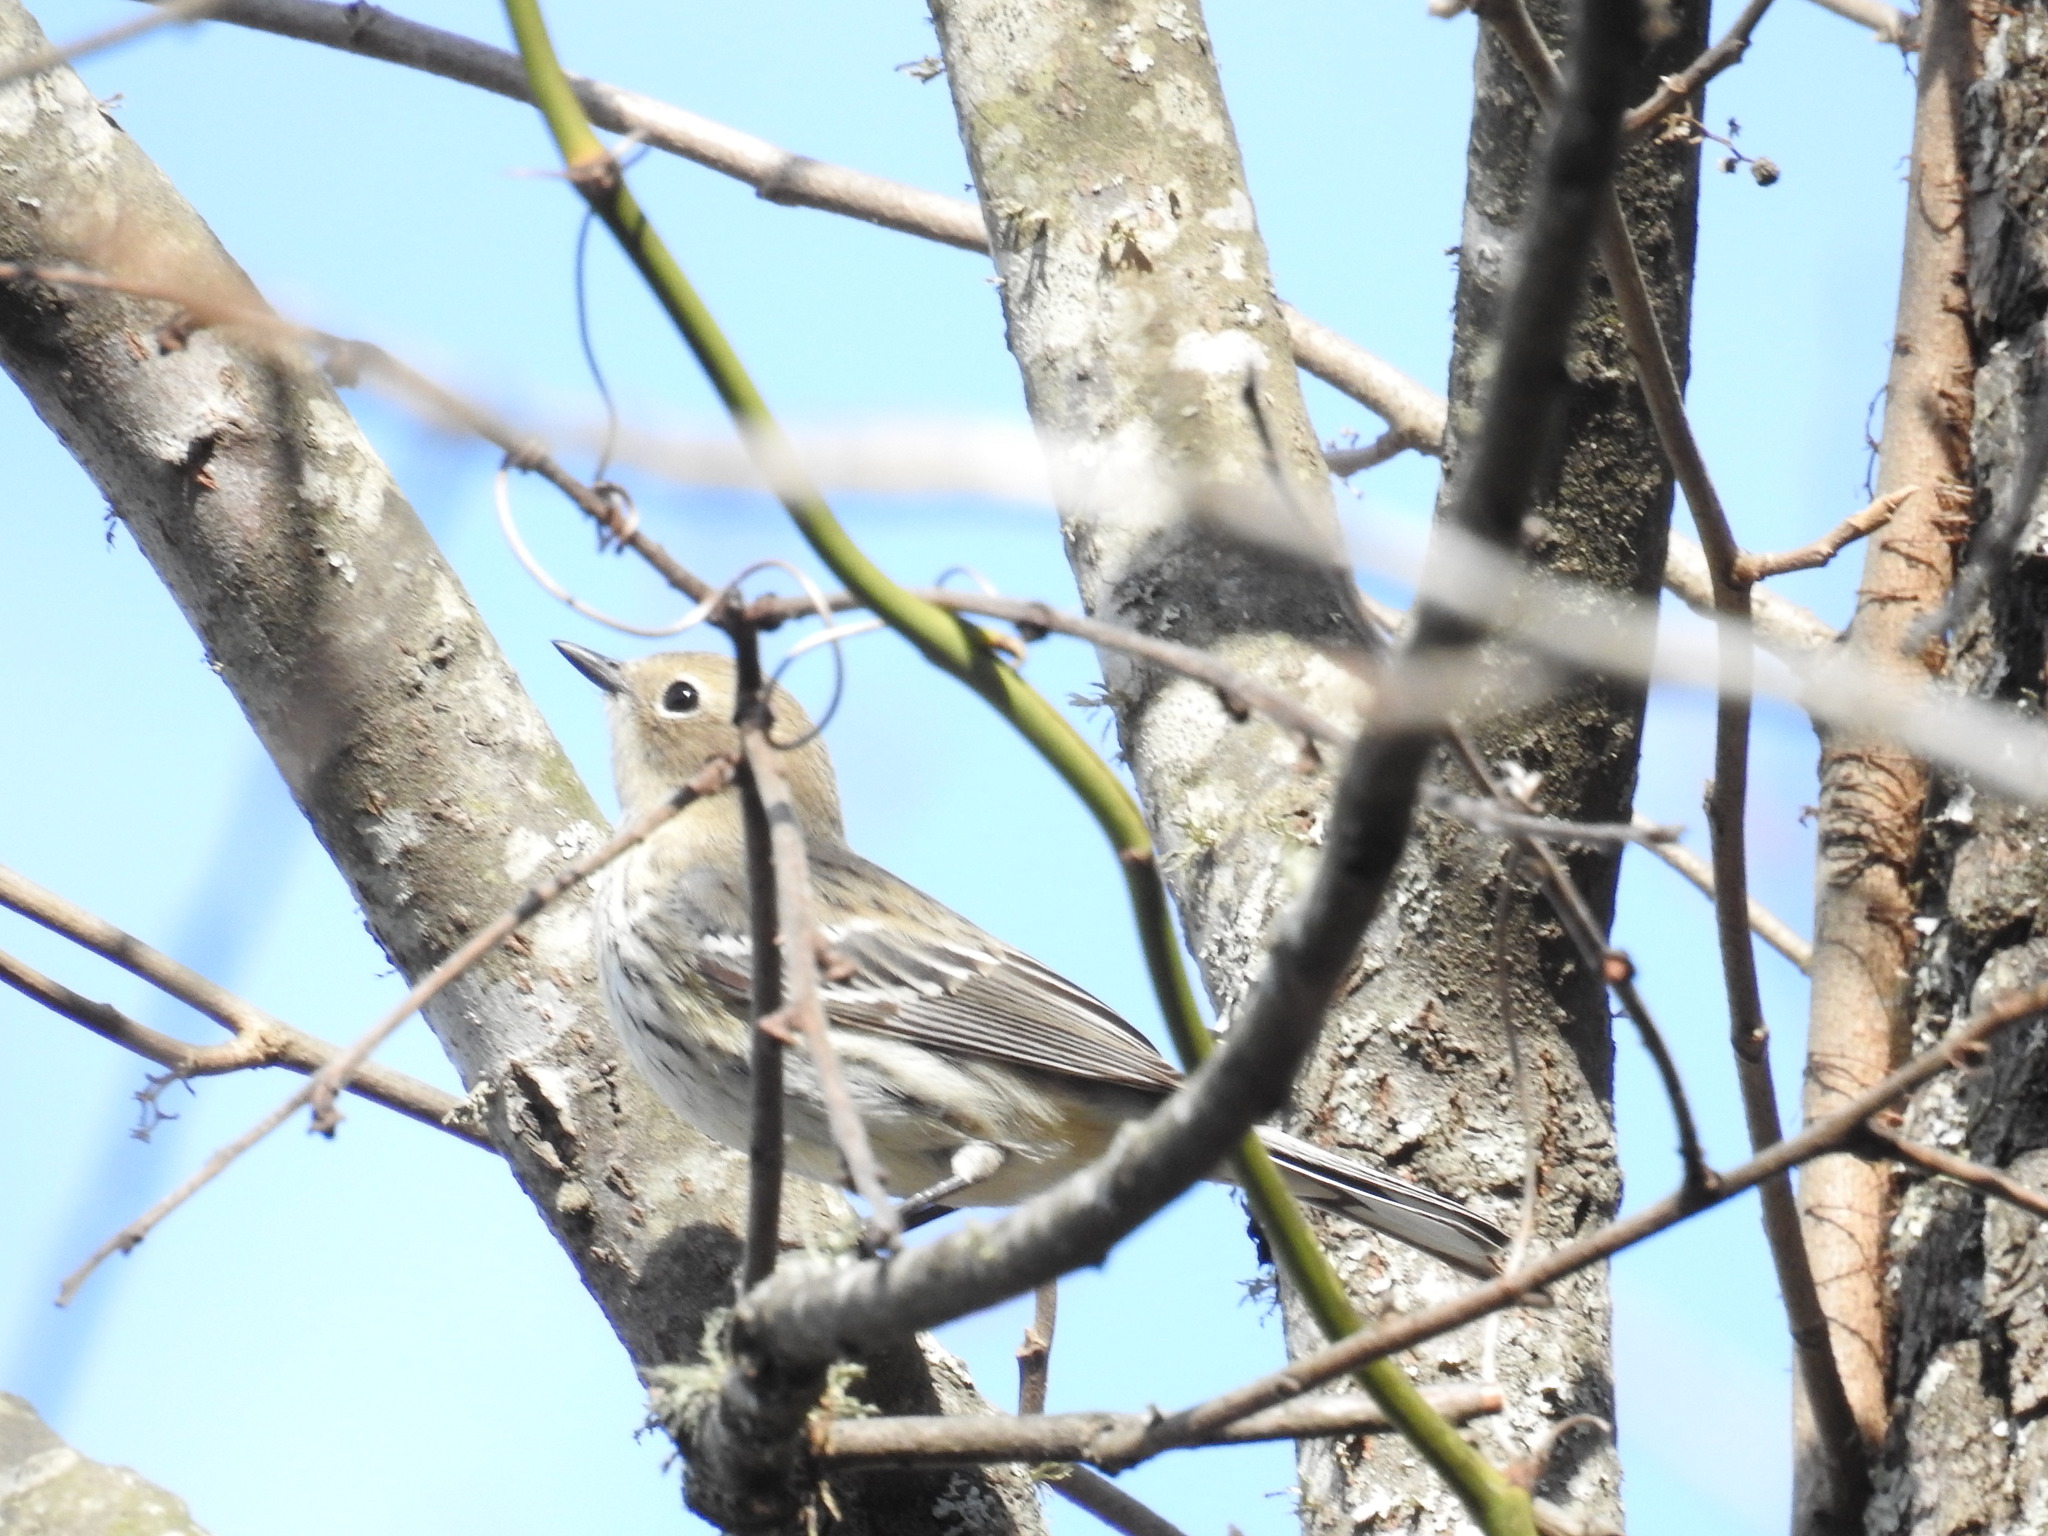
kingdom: Animalia
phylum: Chordata
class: Aves
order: Passeriformes
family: Parulidae
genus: Setophaga
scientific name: Setophaga coronata
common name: Myrtle warbler
